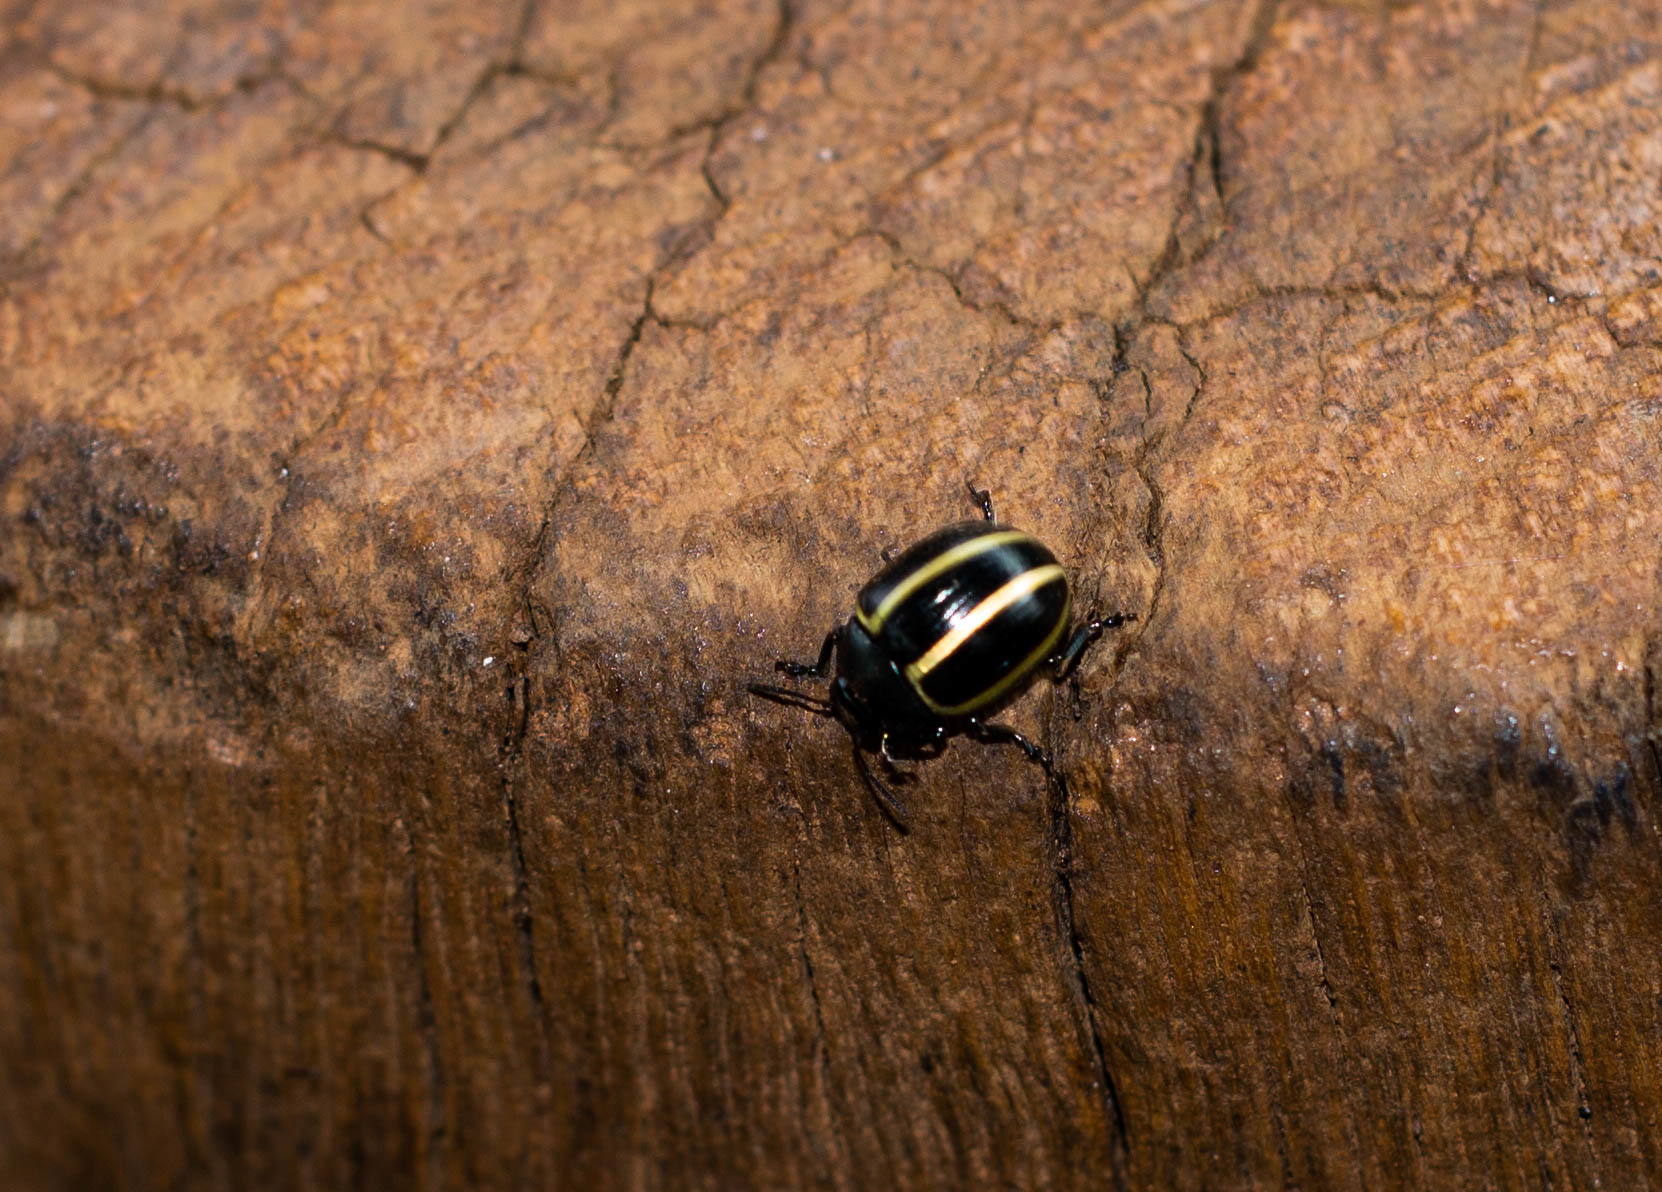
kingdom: Animalia
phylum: Arthropoda
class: Insecta
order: Coleoptera
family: Chrysomelidae
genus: Desmogramma
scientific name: Desmogramma
